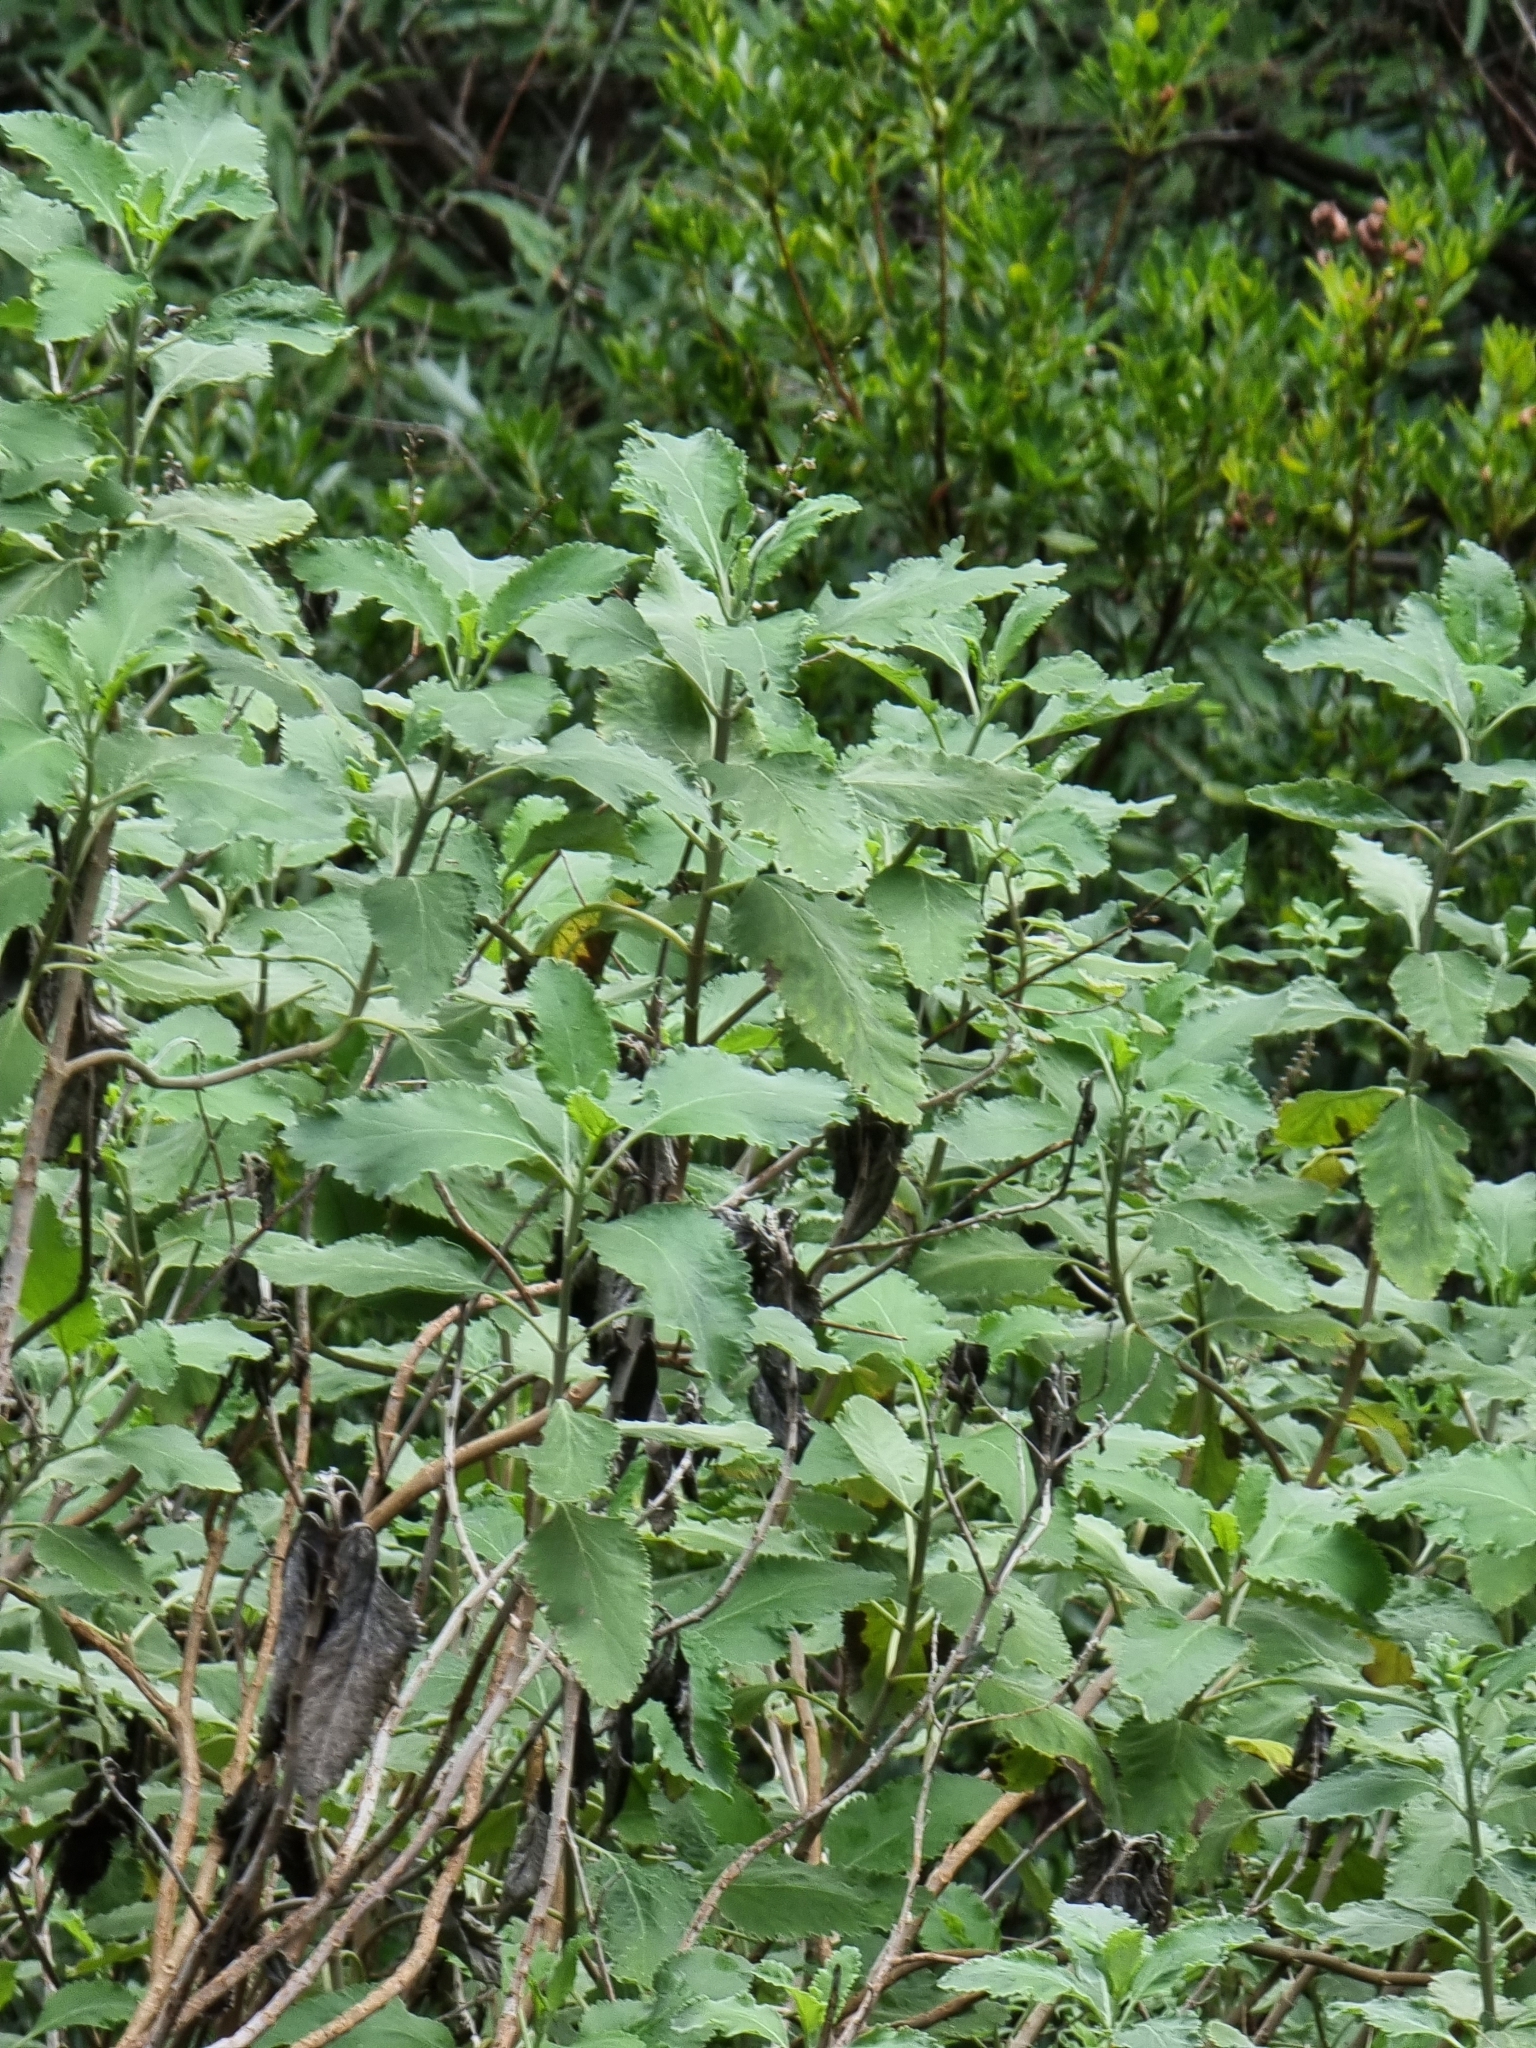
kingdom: Plantae
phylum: Tracheophyta
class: Magnoliopsida
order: Lamiales
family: Lamiaceae
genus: Teucrium
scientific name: Teucrium betonicum
